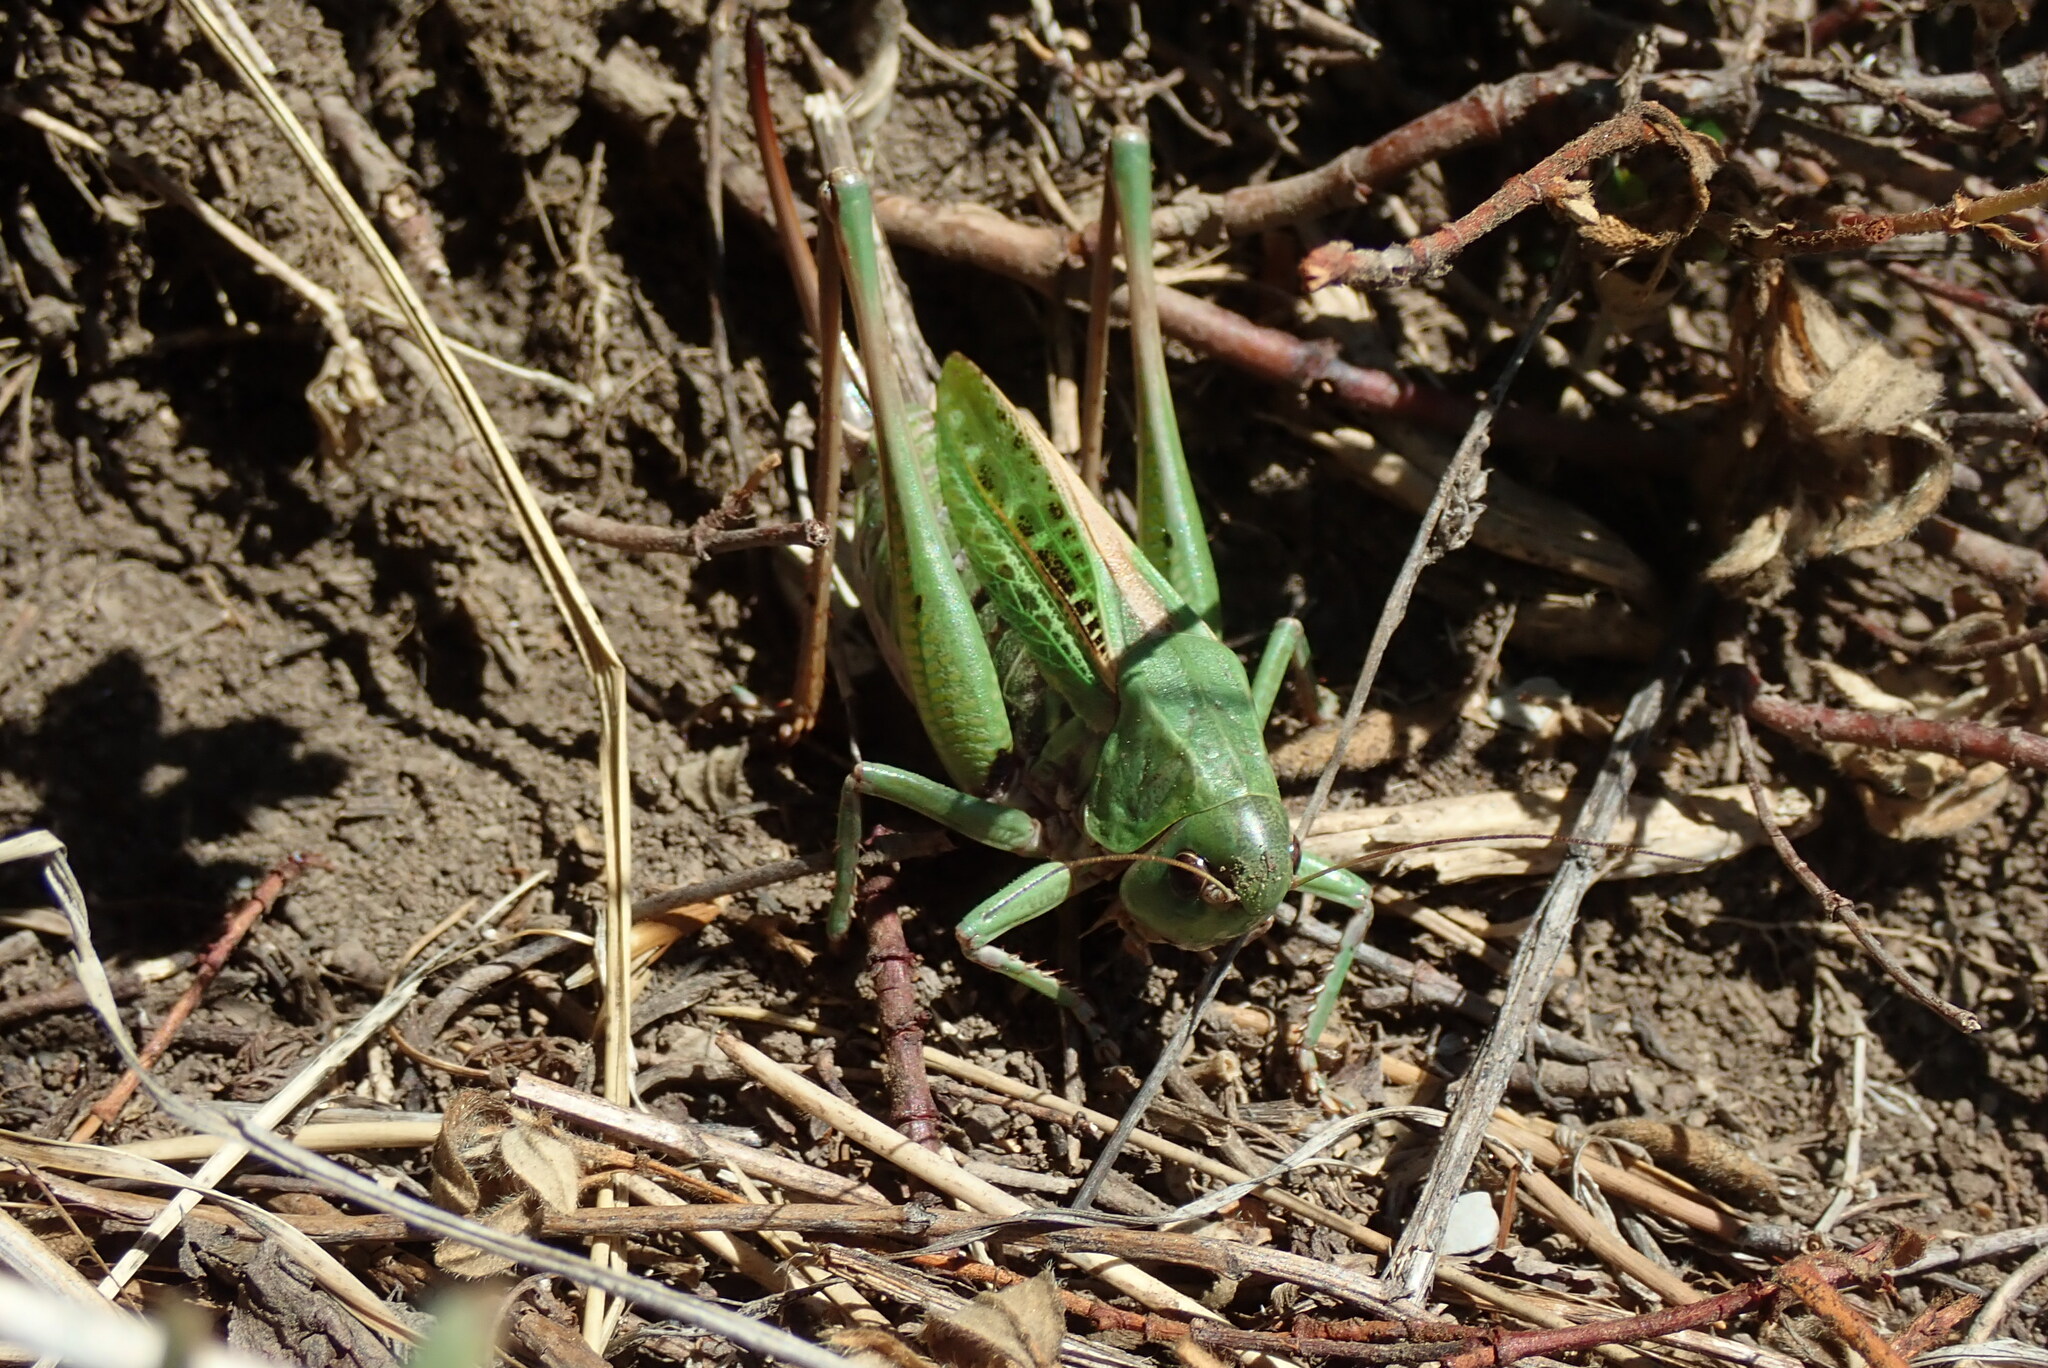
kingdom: Animalia
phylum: Arthropoda
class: Insecta
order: Orthoptera
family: Tettigoniidae
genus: Decticus
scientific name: Decticus verrucivorus
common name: Wart-biter
